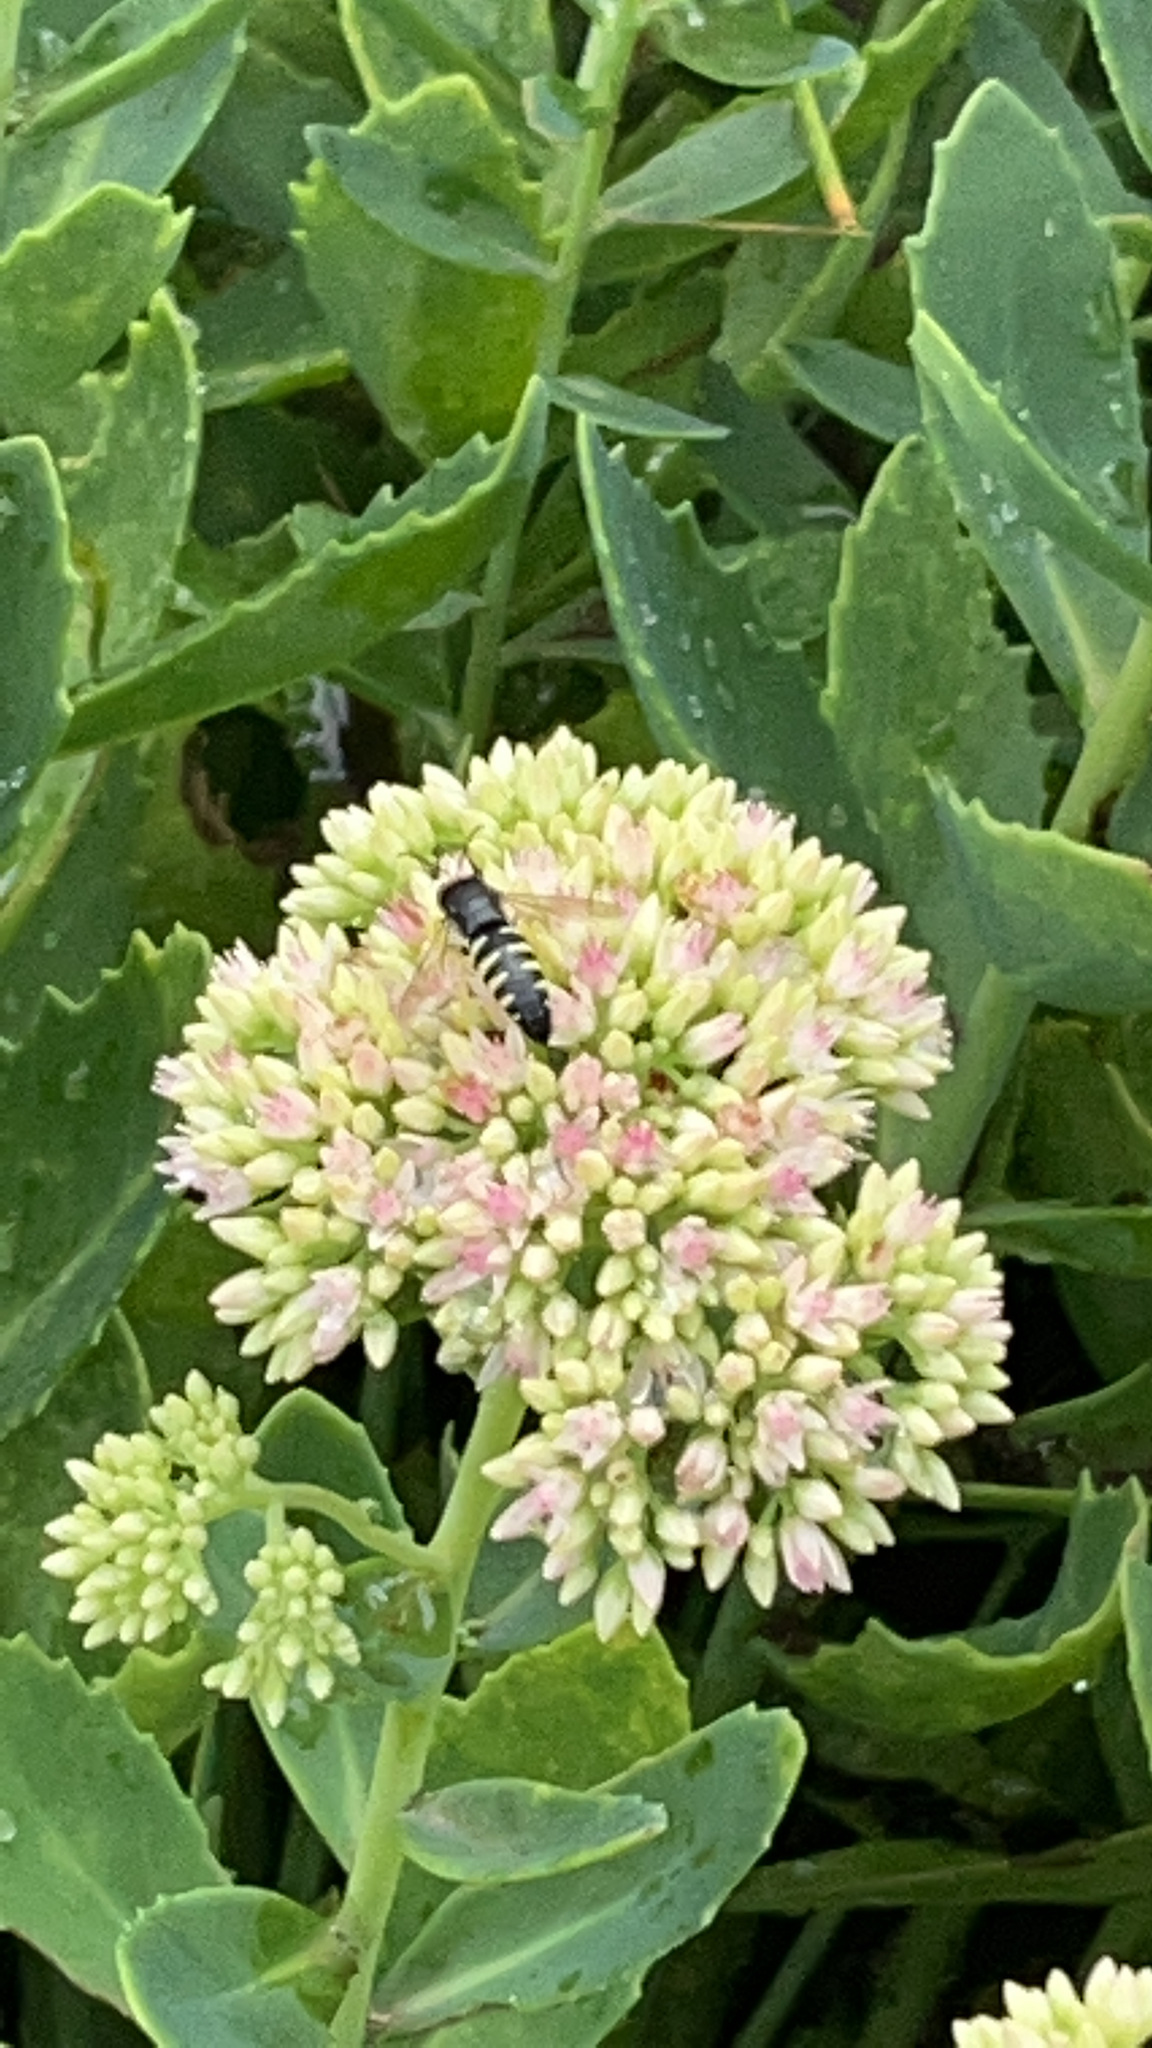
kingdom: Animalia
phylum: Arthropoda
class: Insecta
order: Hymenoptera
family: Crabronidae
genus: Bicyrtes
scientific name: Bicyrtes quadrifasciatus
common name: Four-banded stink bug hunter wasp
